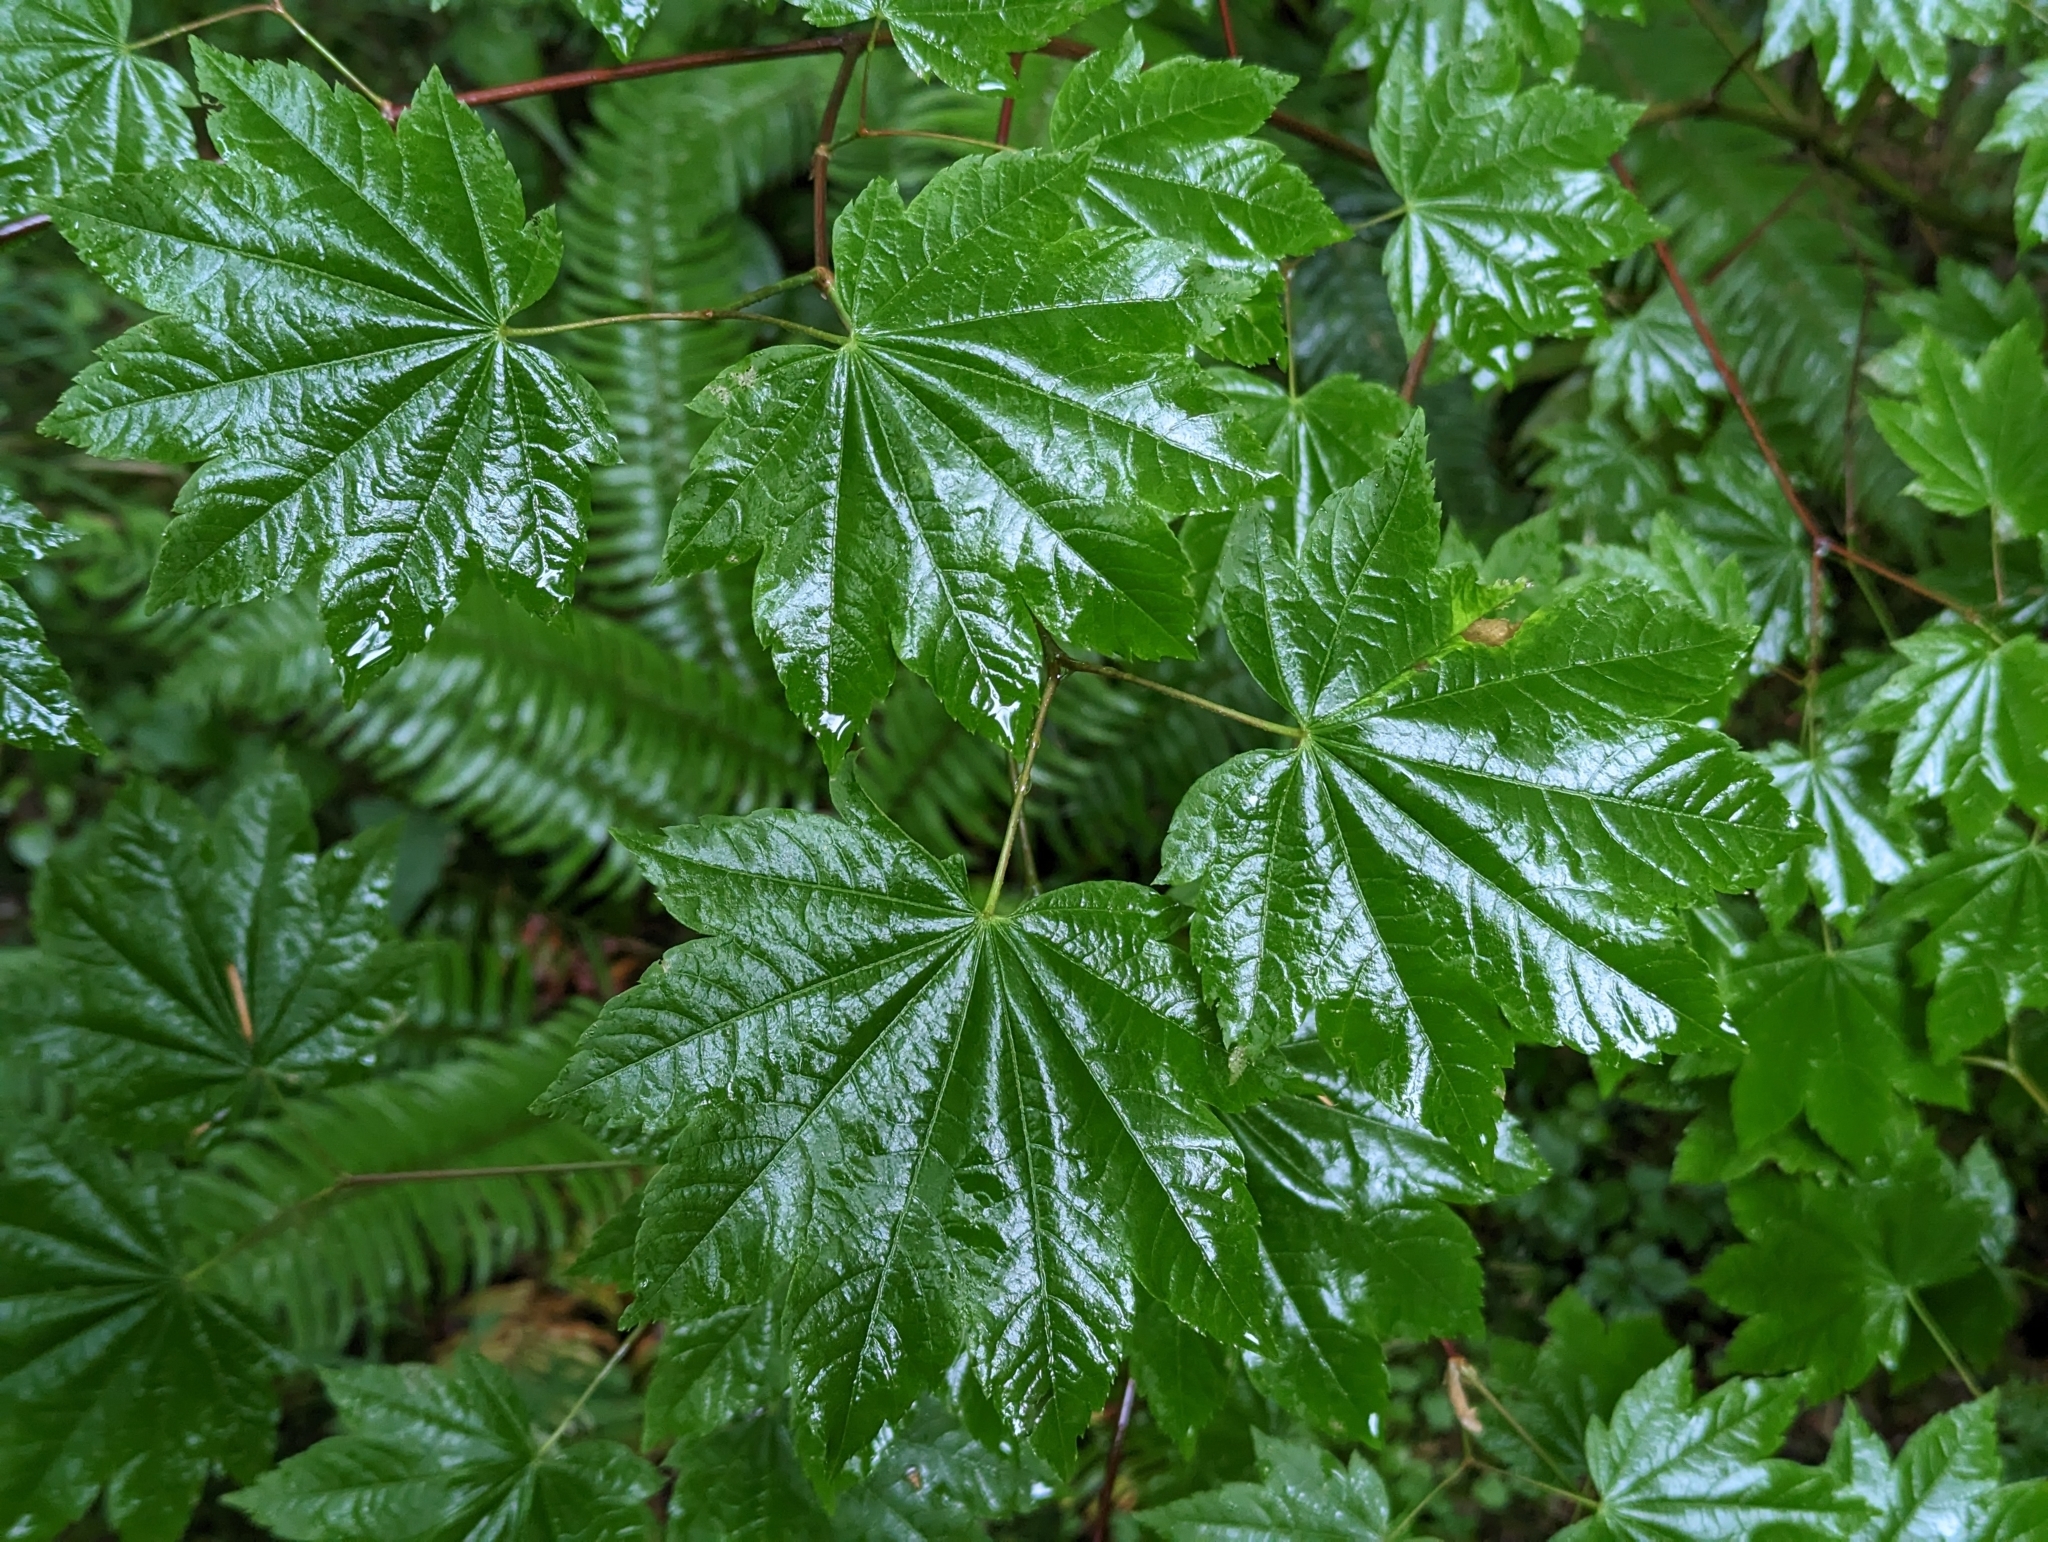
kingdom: Plantae
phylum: Tracheophyta
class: Magnoliopsida
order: Sapindales
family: Sapindaceae
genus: Acer
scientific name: Acer circinatum
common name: Vine maple
